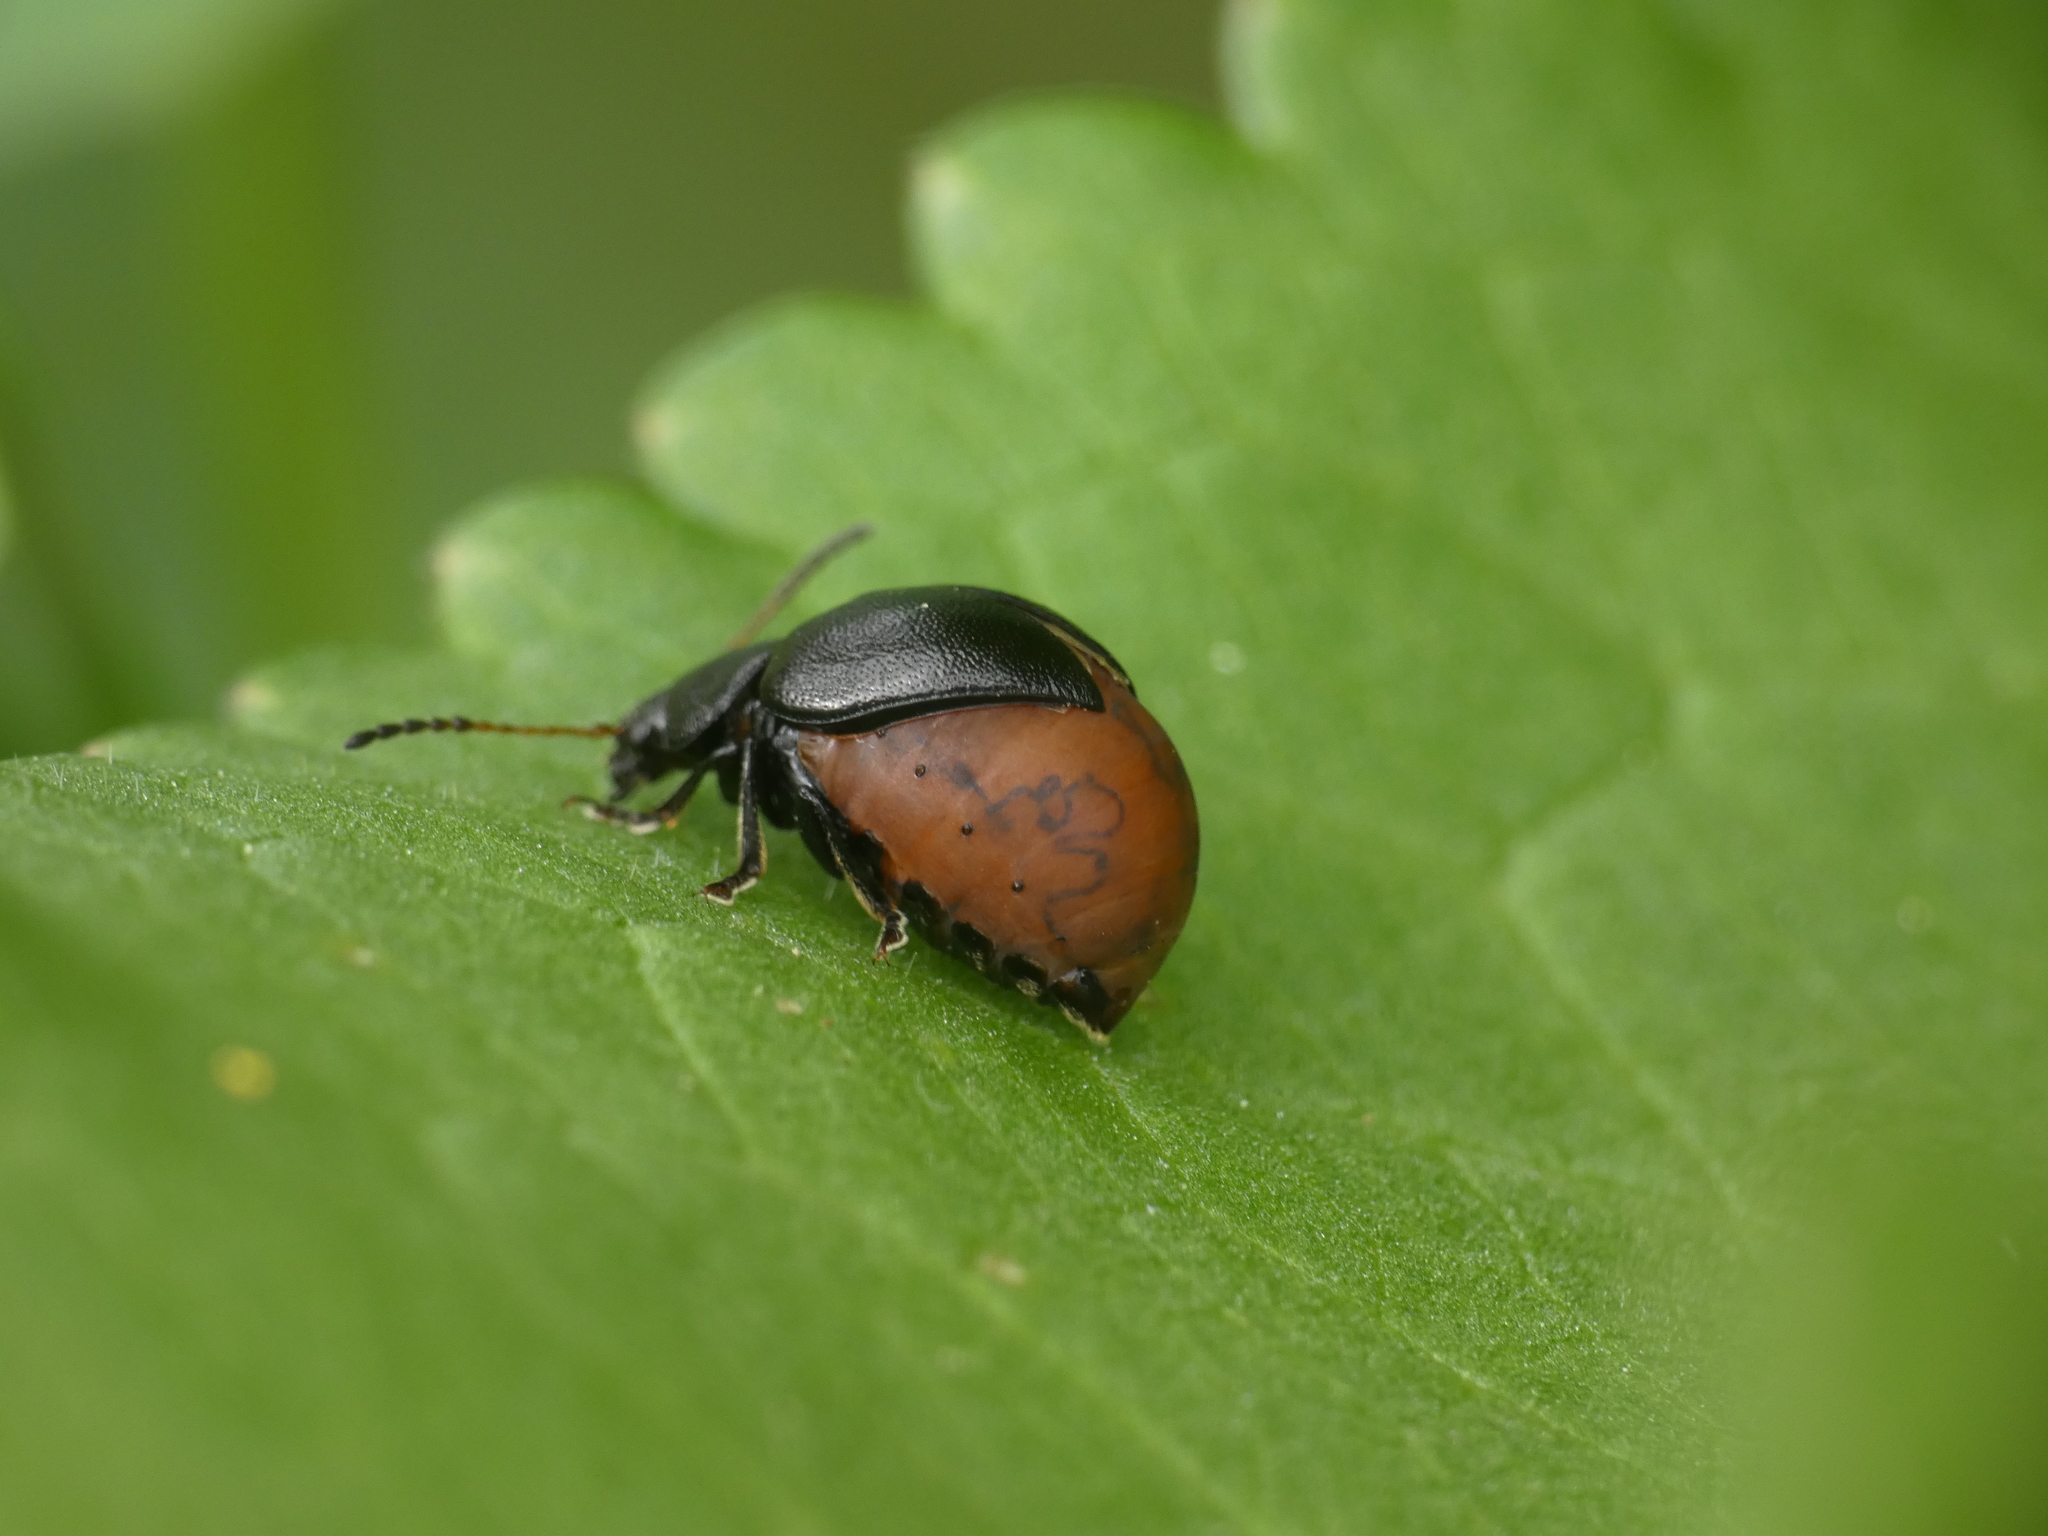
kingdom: Animalia
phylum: Arthropoda
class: Insecta
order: Coleoptera
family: Chrysomelidae
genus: Colaspidema
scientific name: Colaspidema barbarum
